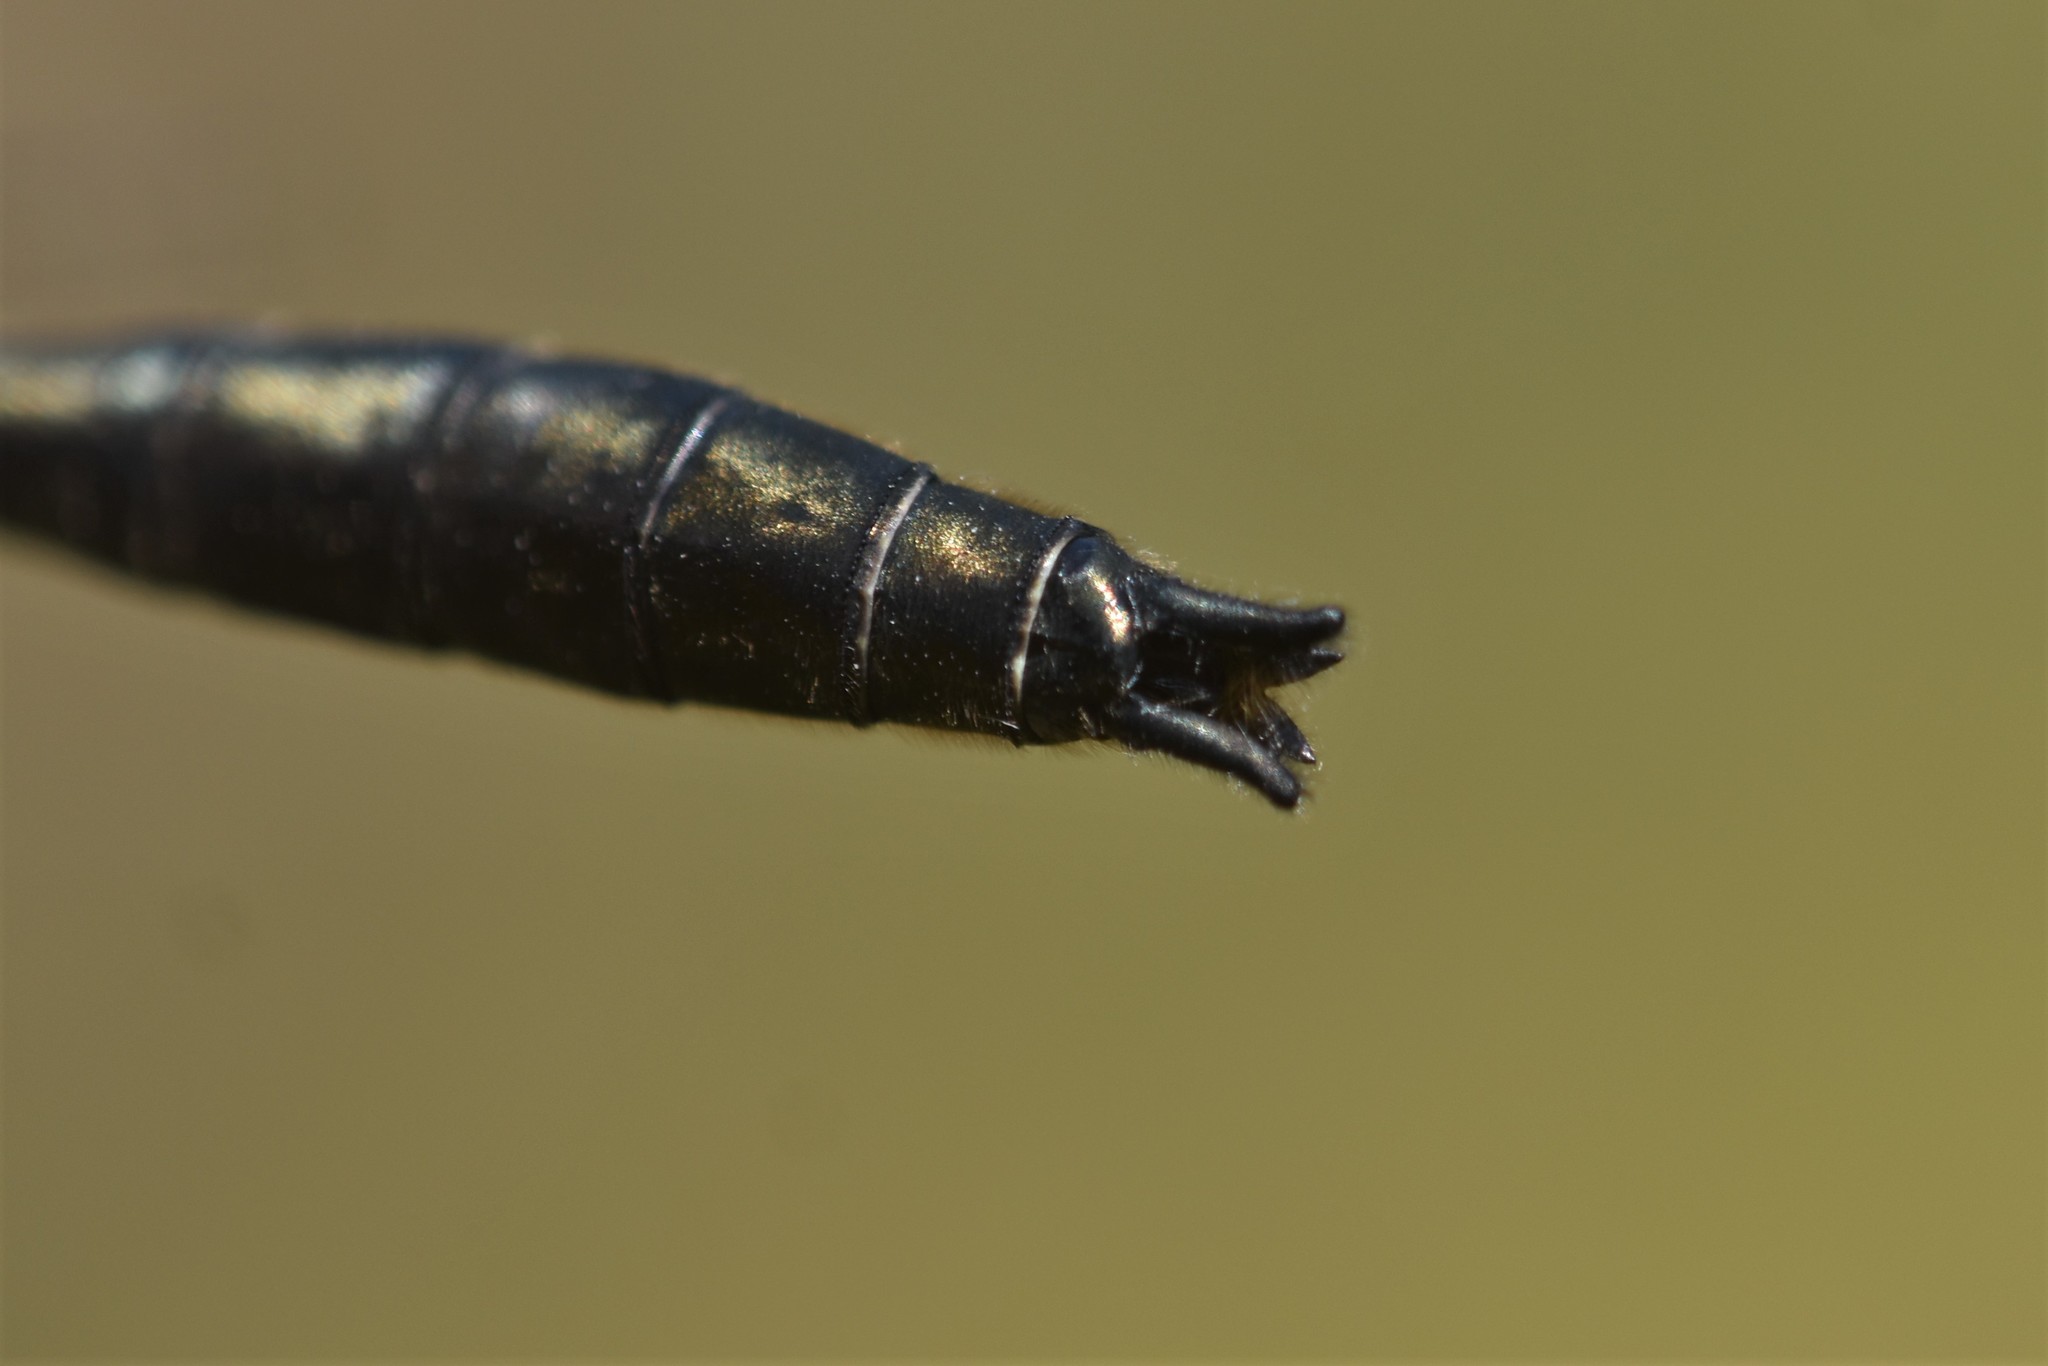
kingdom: Animalia
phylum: Arthropoda
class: Insecta
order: Odonata
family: Corduliidae
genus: Cordulia
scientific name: Cordulia shurtleffii
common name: American emerald
